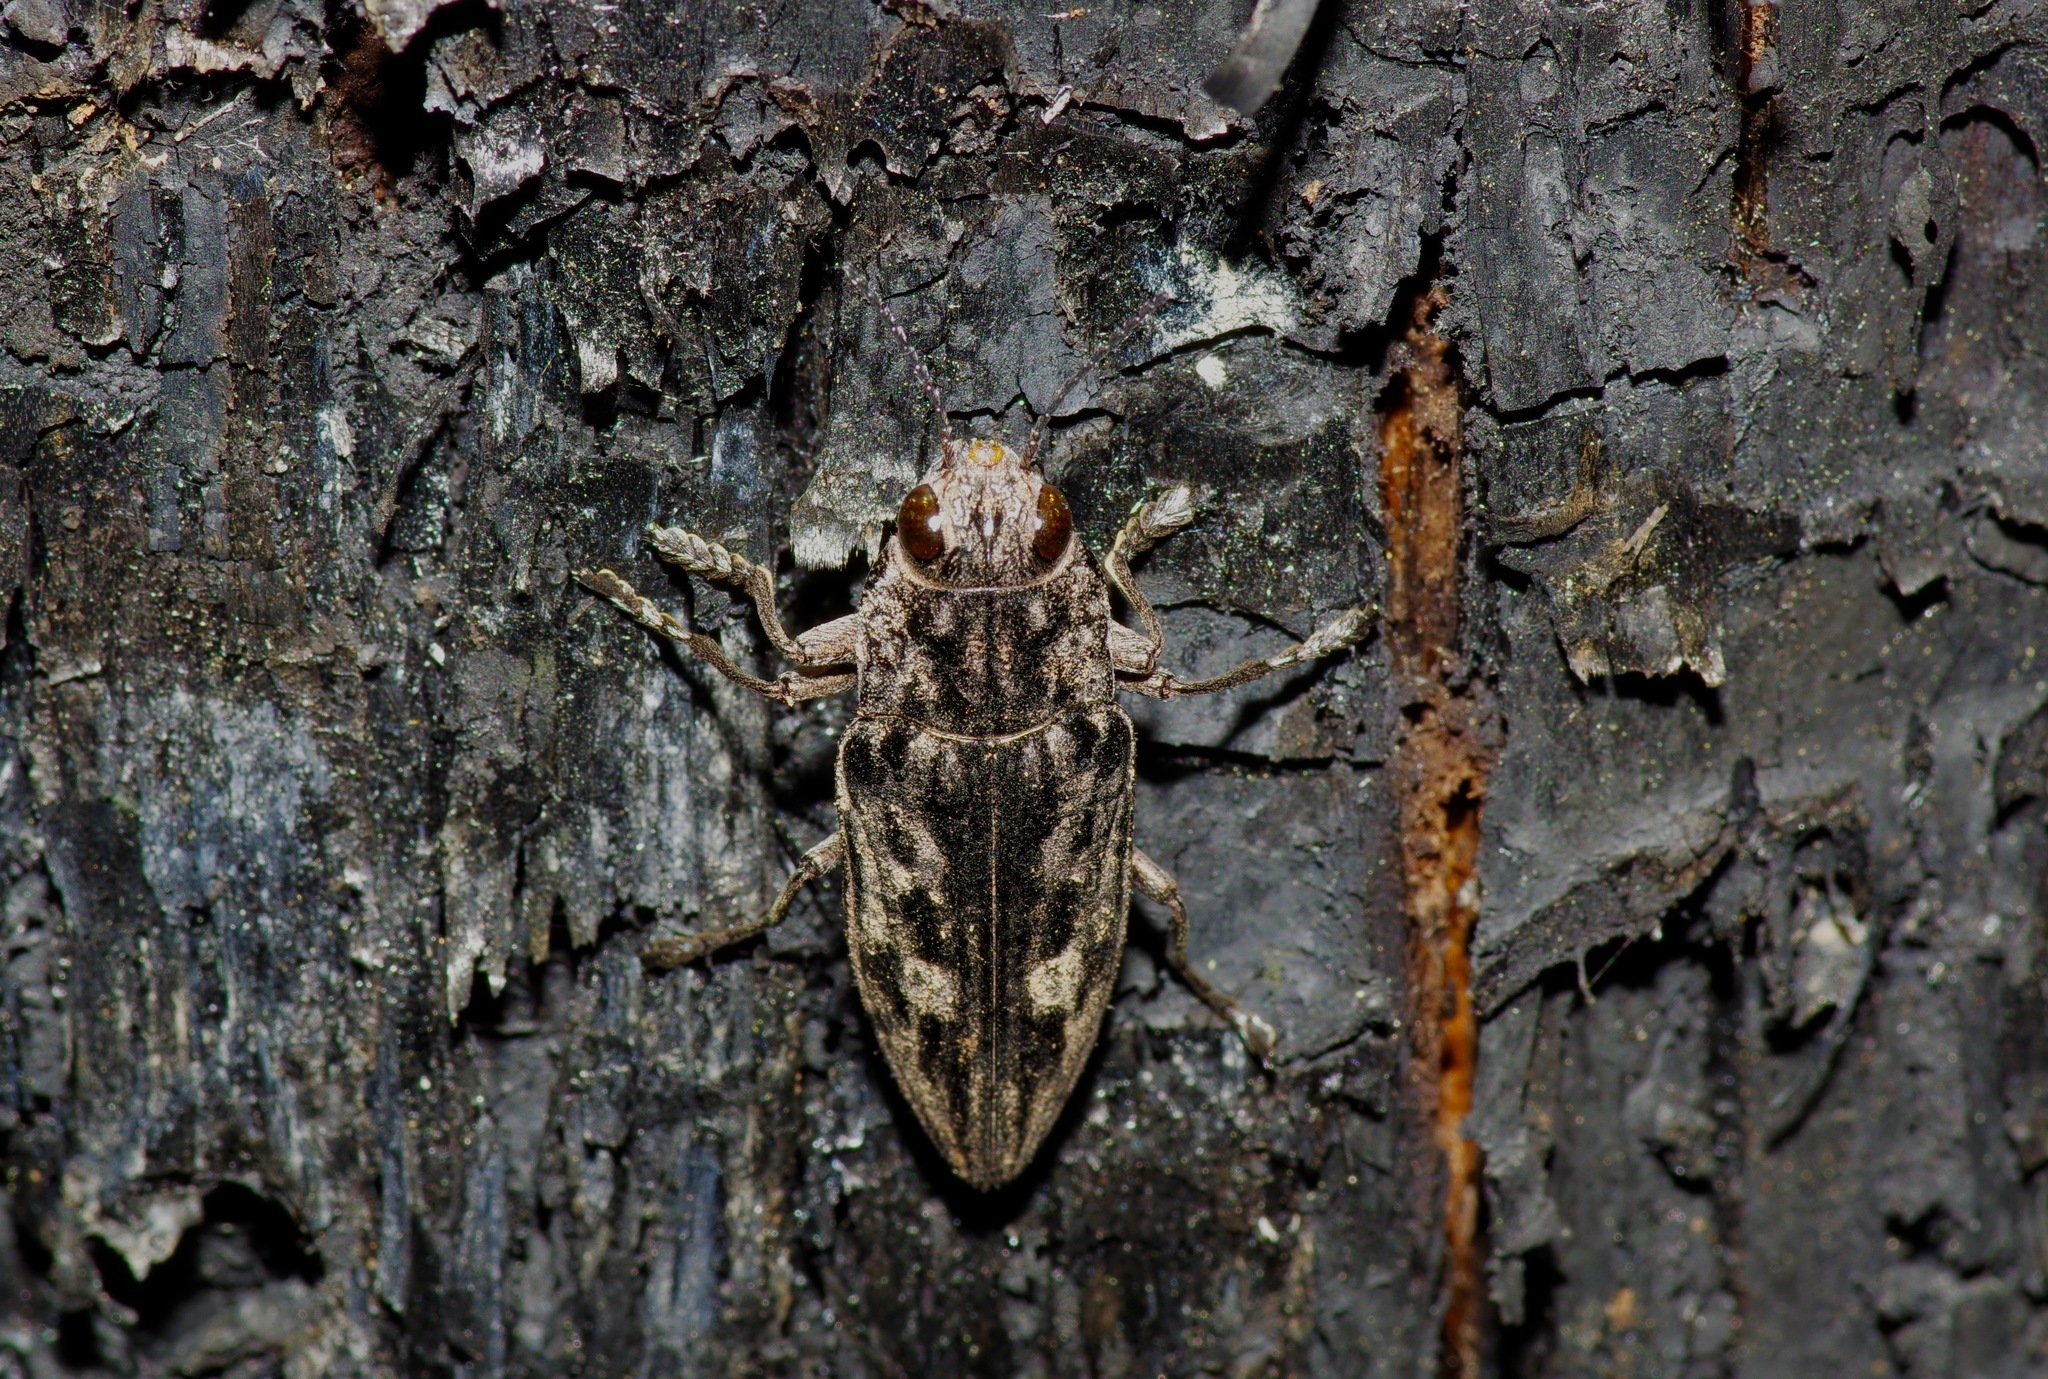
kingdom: Animalia
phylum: Arthropoda
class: Insecta
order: Coleoptera
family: Buprestidae
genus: Chalcophora
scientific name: Chalcophora virginiensis
